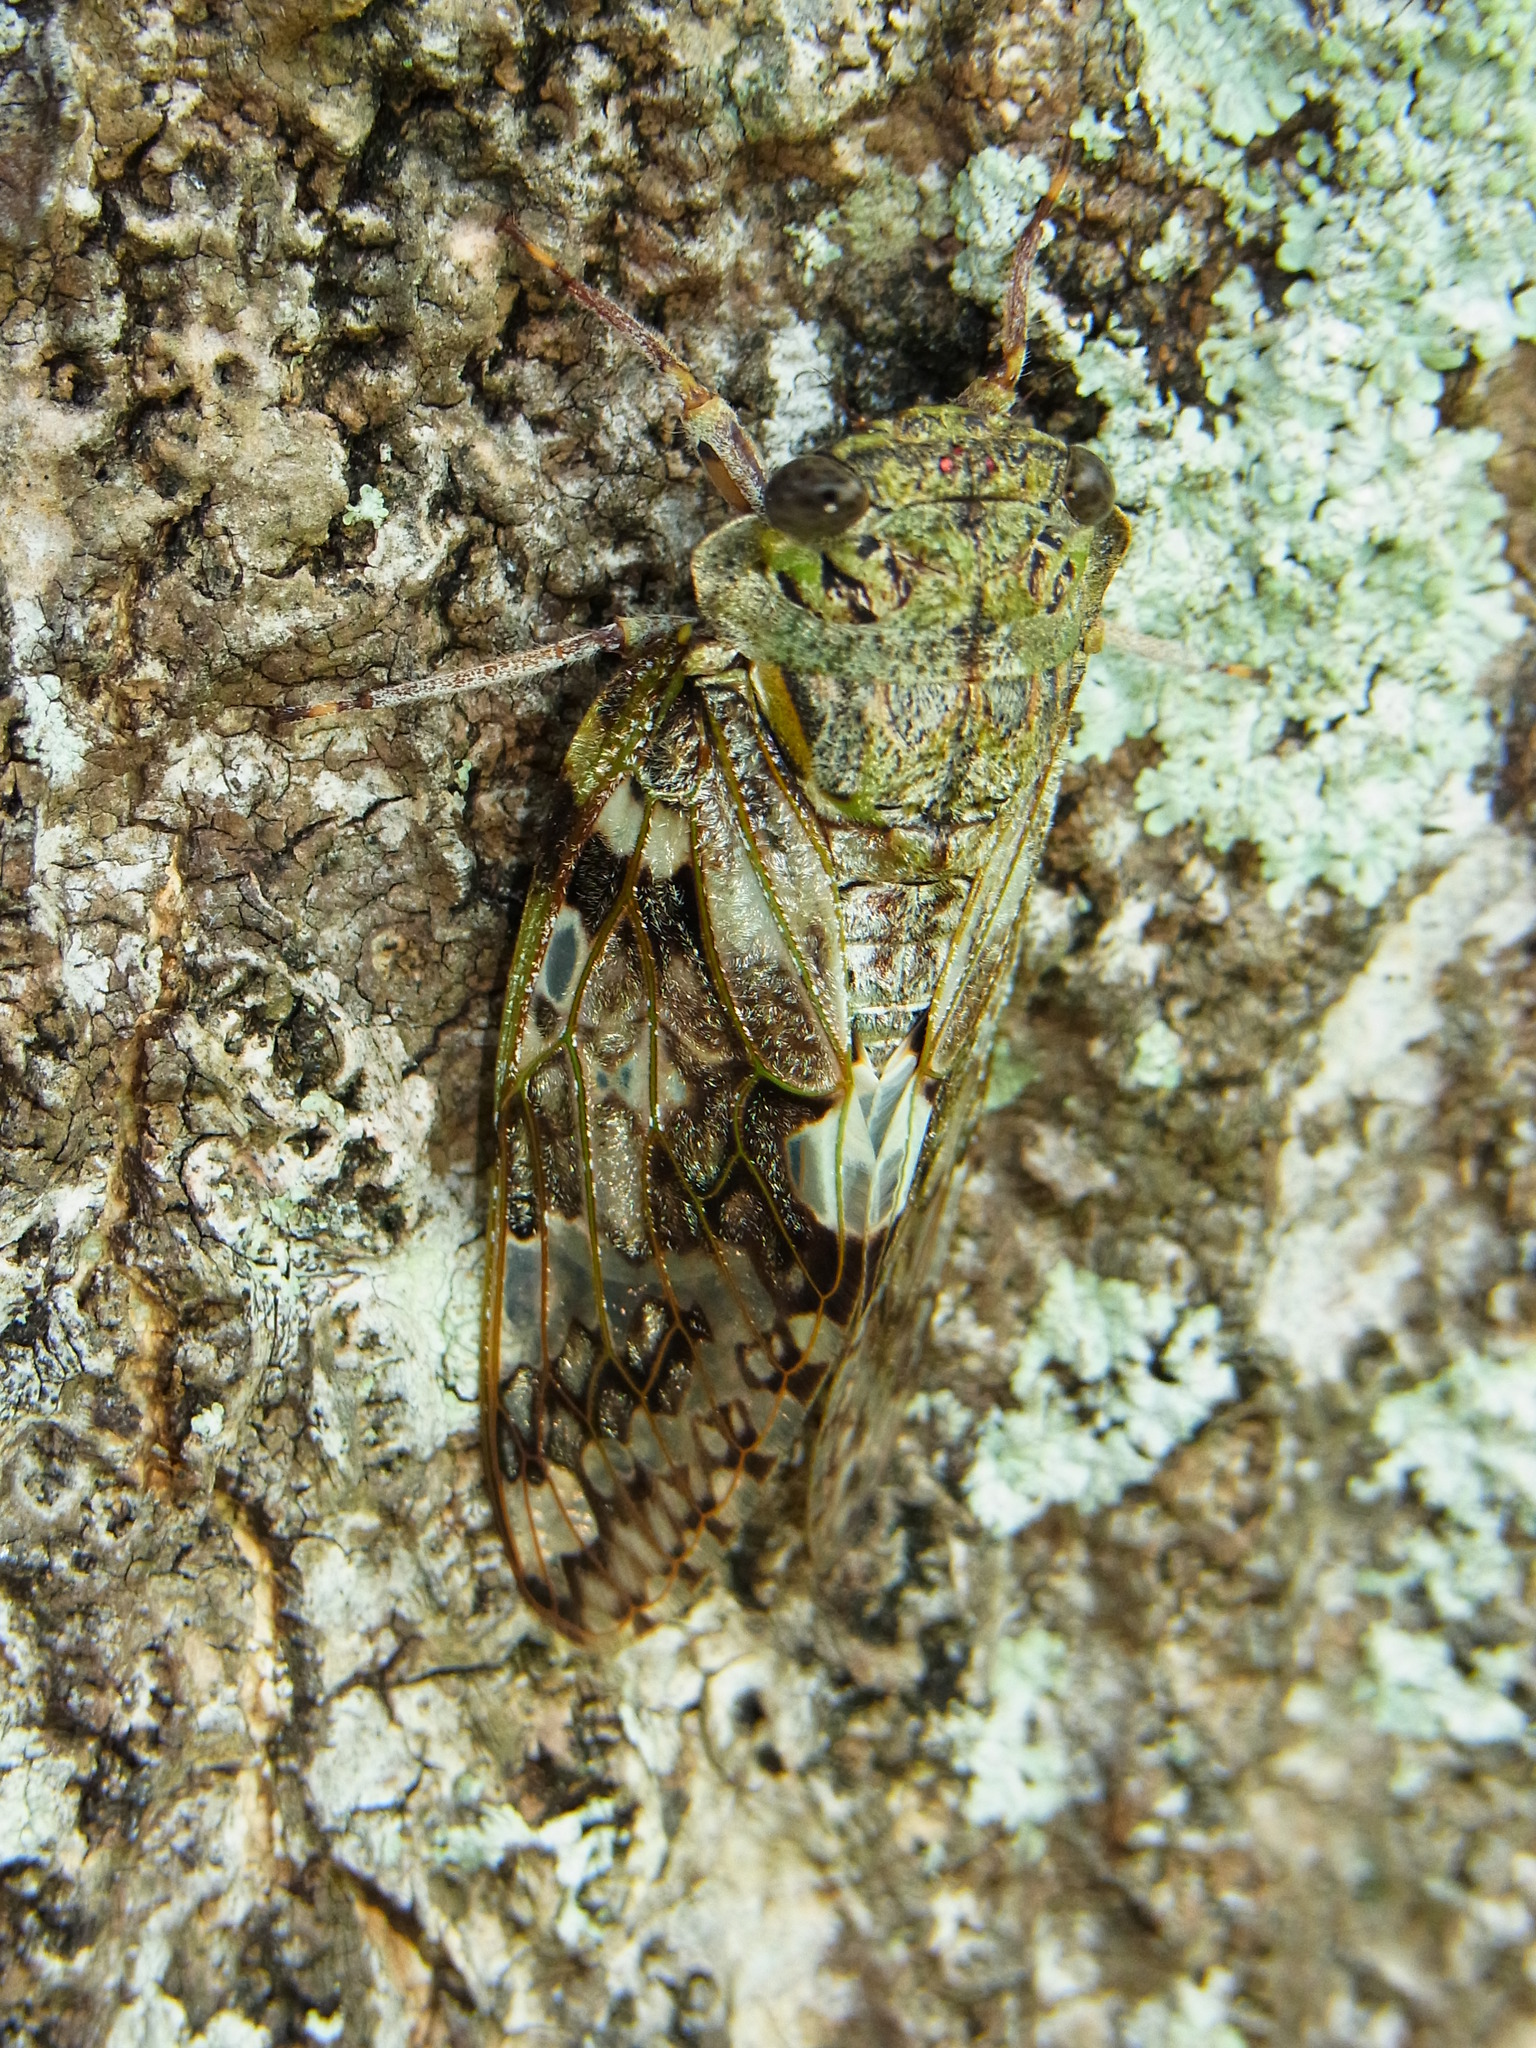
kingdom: Animalia
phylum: Arthropoda
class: Insecta
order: Hemiptera
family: Cicadidae
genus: Platypleura
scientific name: Platypleura kaempferi
